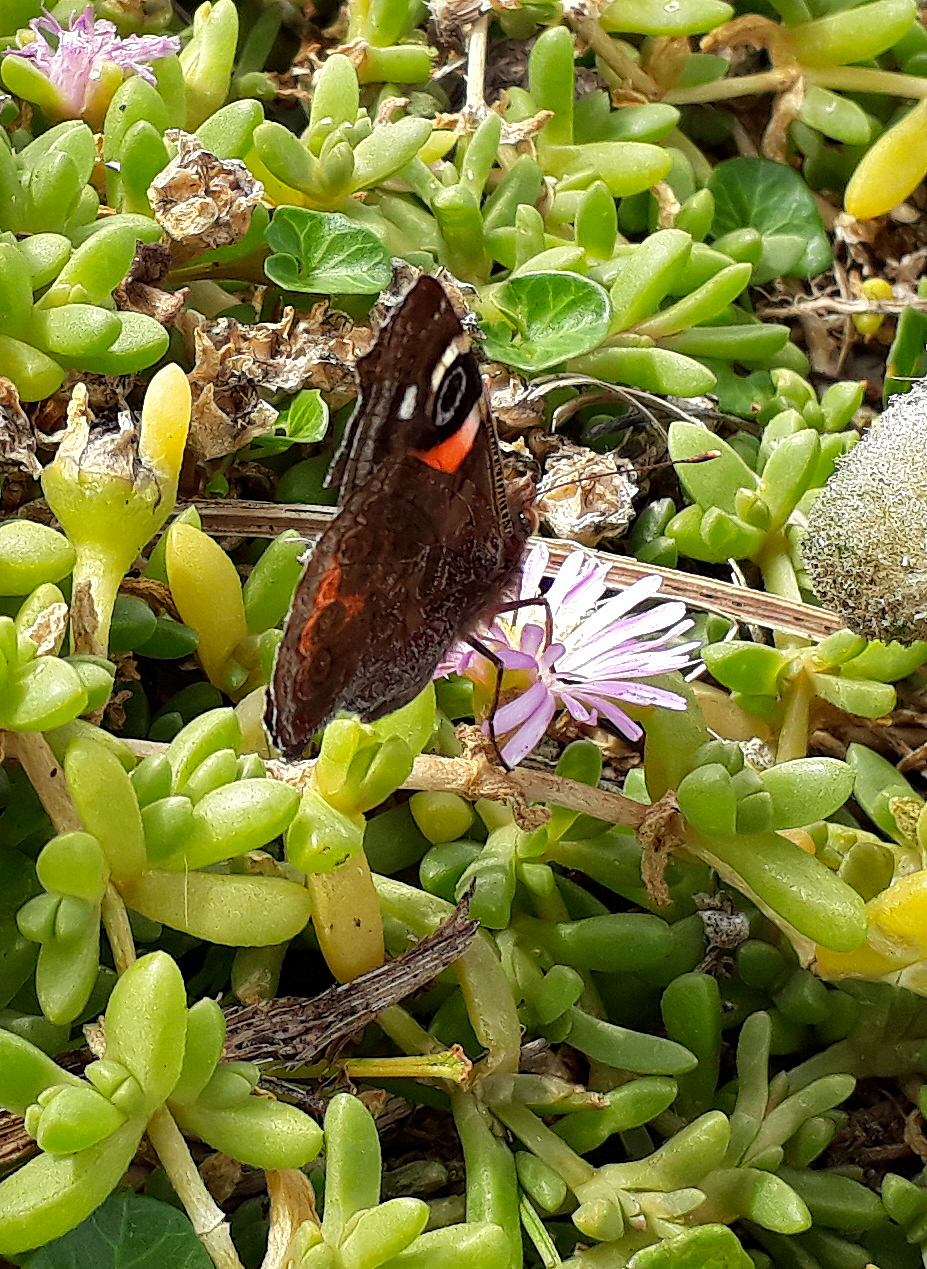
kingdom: Animalia
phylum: Arthropoda
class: Insecta
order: Lepidoptera
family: Nymphalidae
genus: Vanessa
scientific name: Vanessa gonerilla
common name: New zealand red admiral
